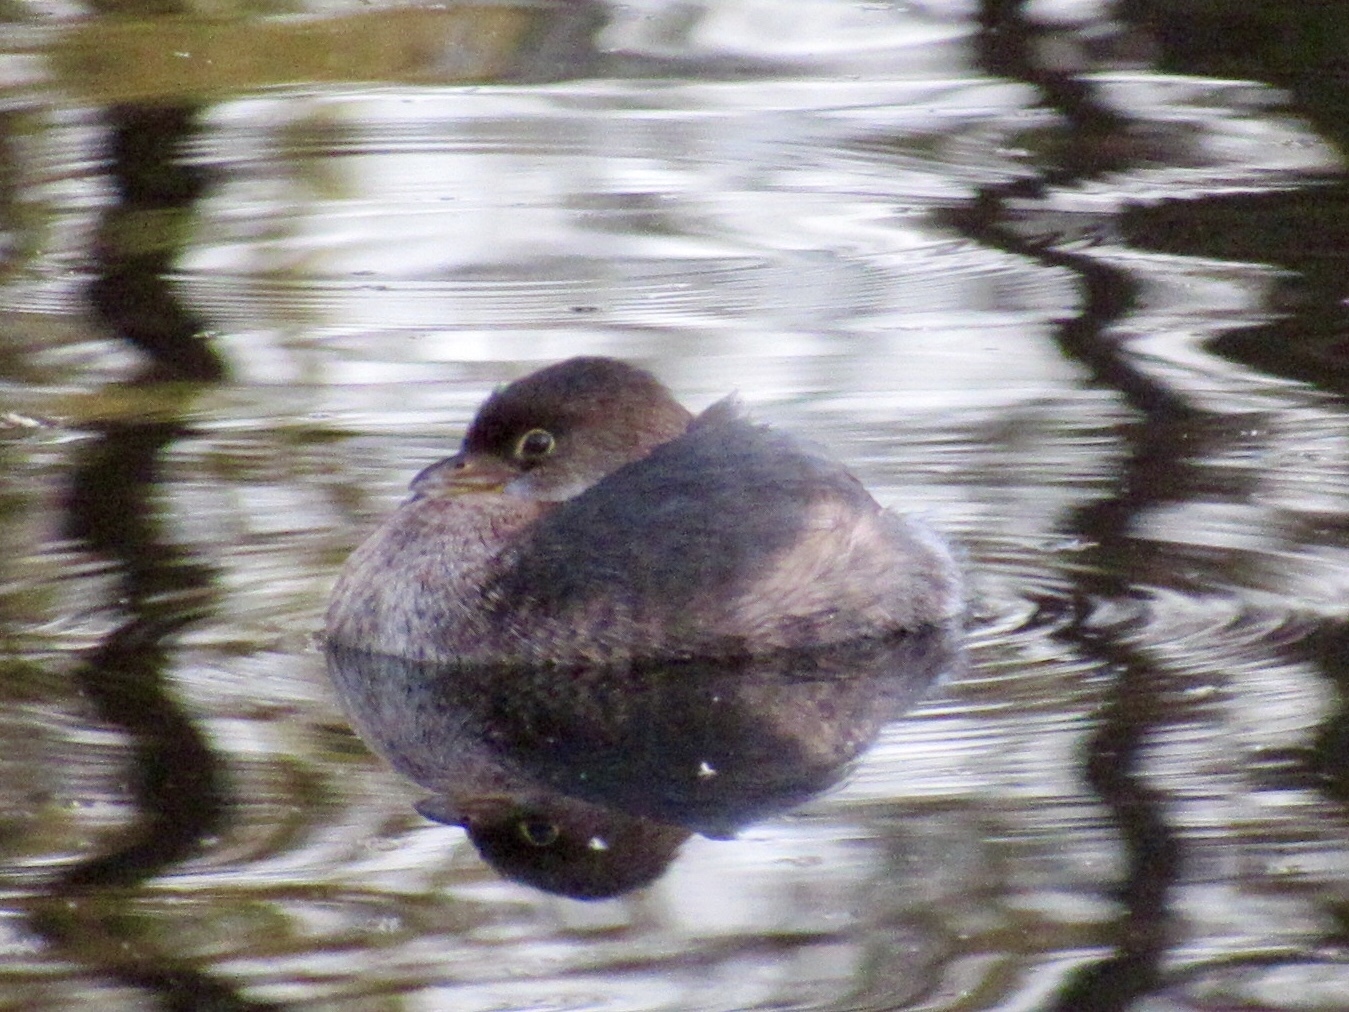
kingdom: Animalia
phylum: Chordata
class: Aves
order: Podicipediformes
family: Podicipedidae
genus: Podilymbus
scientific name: Podilymbus podiceps
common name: Pied-billed grebe
